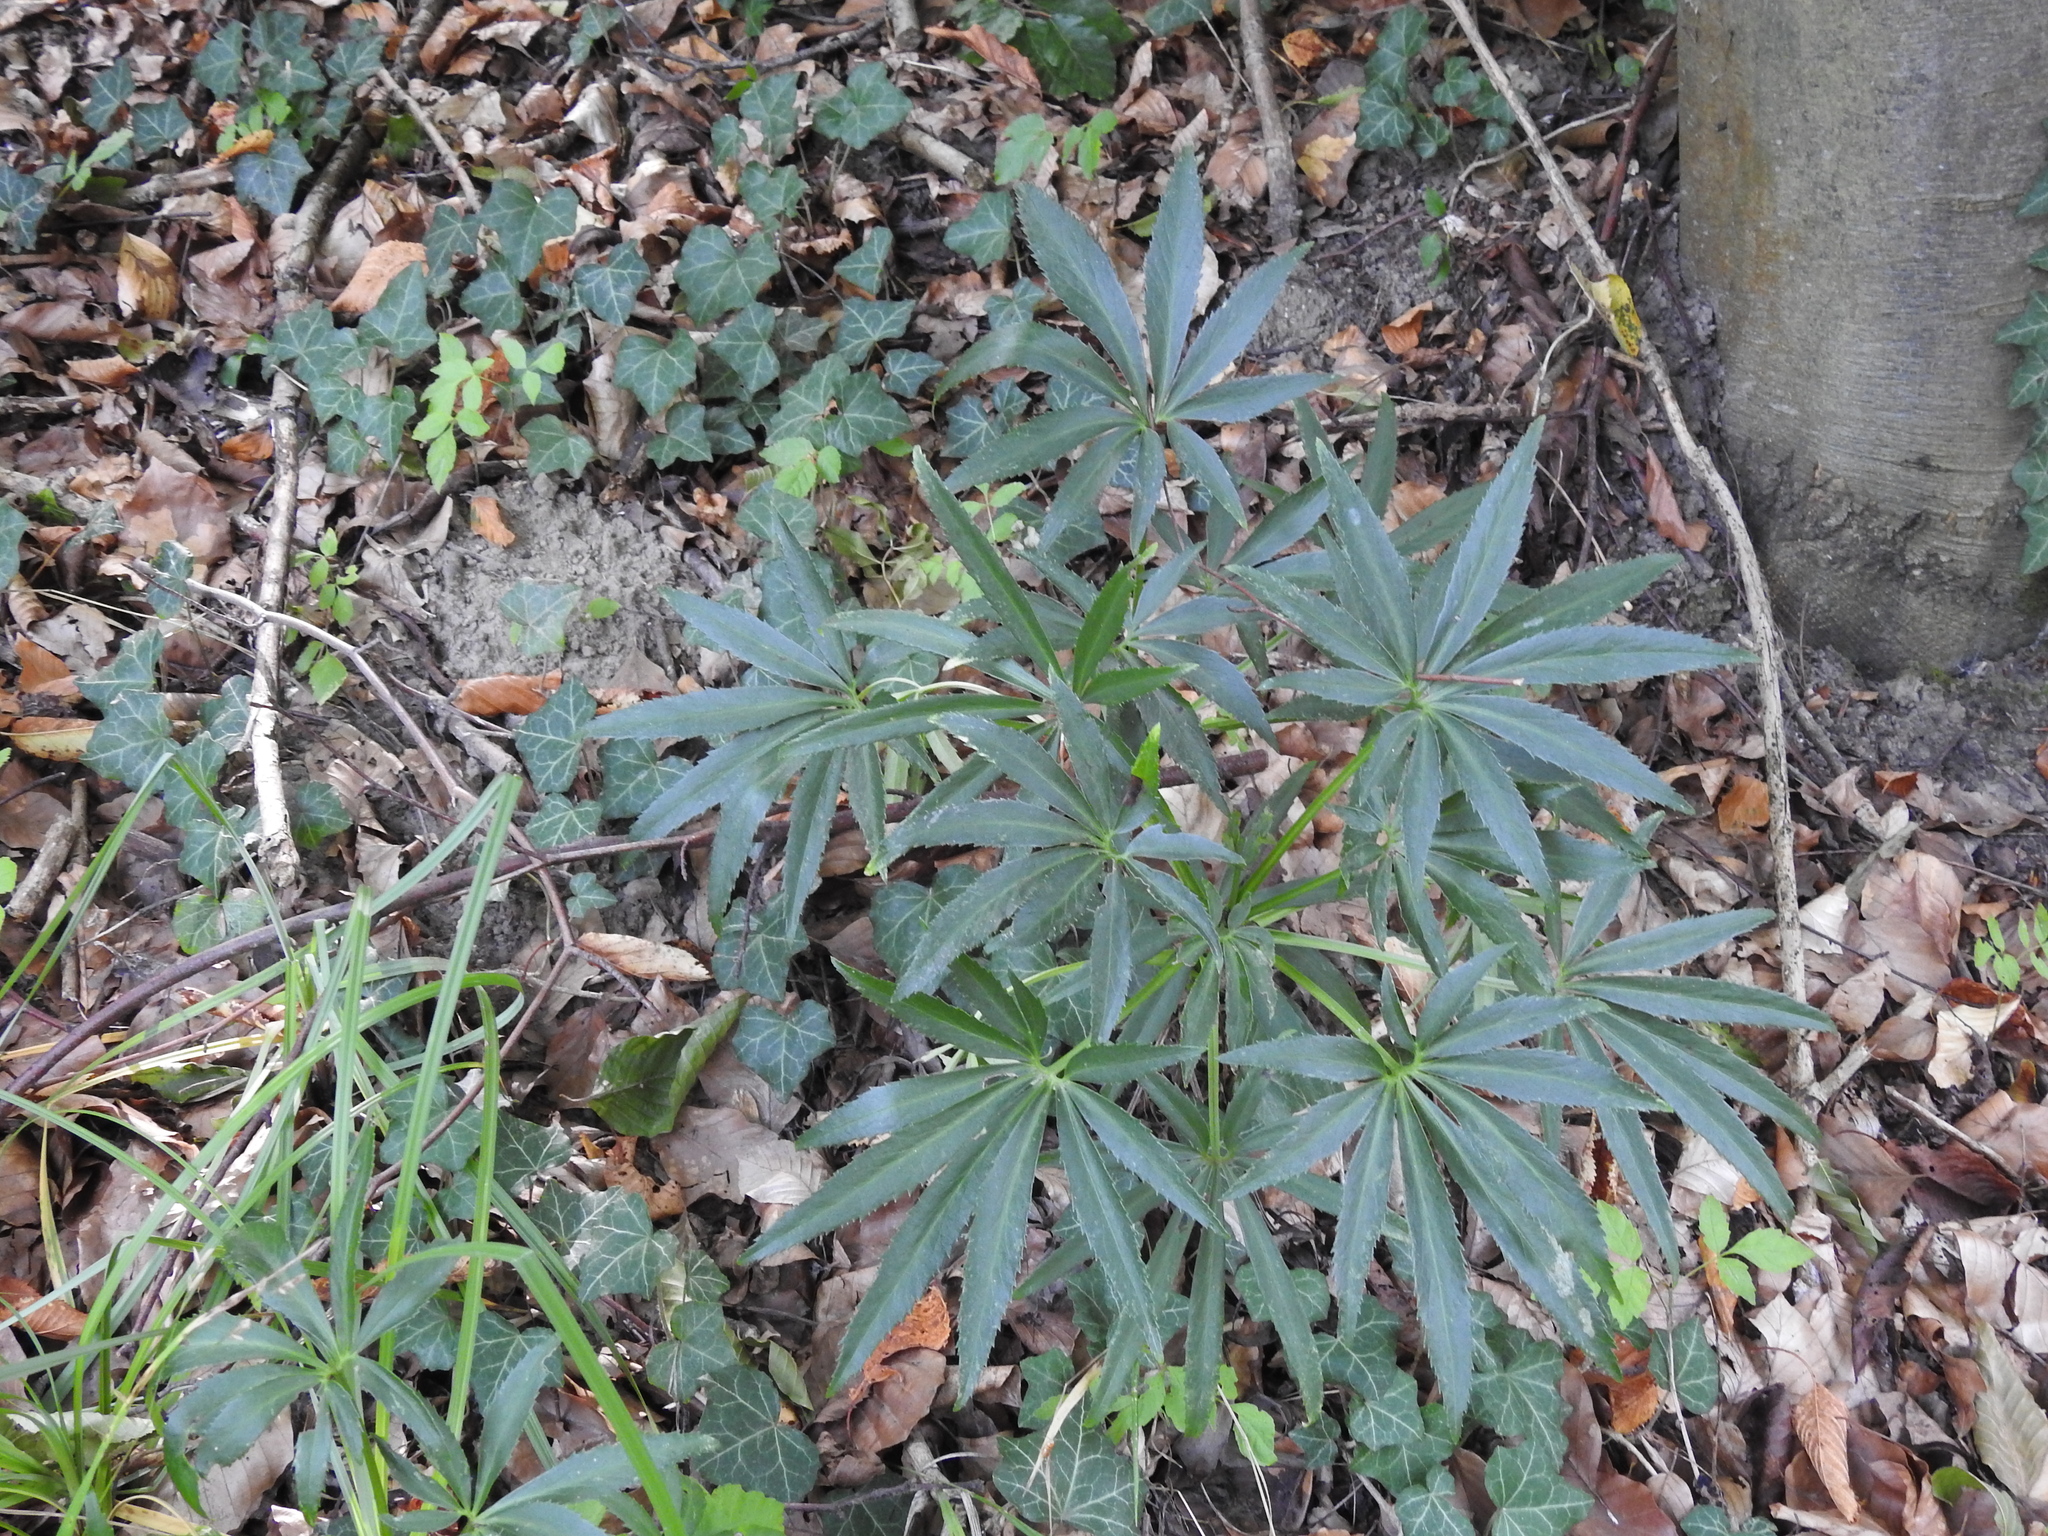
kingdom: Plantae
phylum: Tracheophyta
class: Magnoliopsida
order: Ranunculales
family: Ranunculaceae
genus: Helleborus
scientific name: Helleborus foetidus
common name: Stinking hellebore
